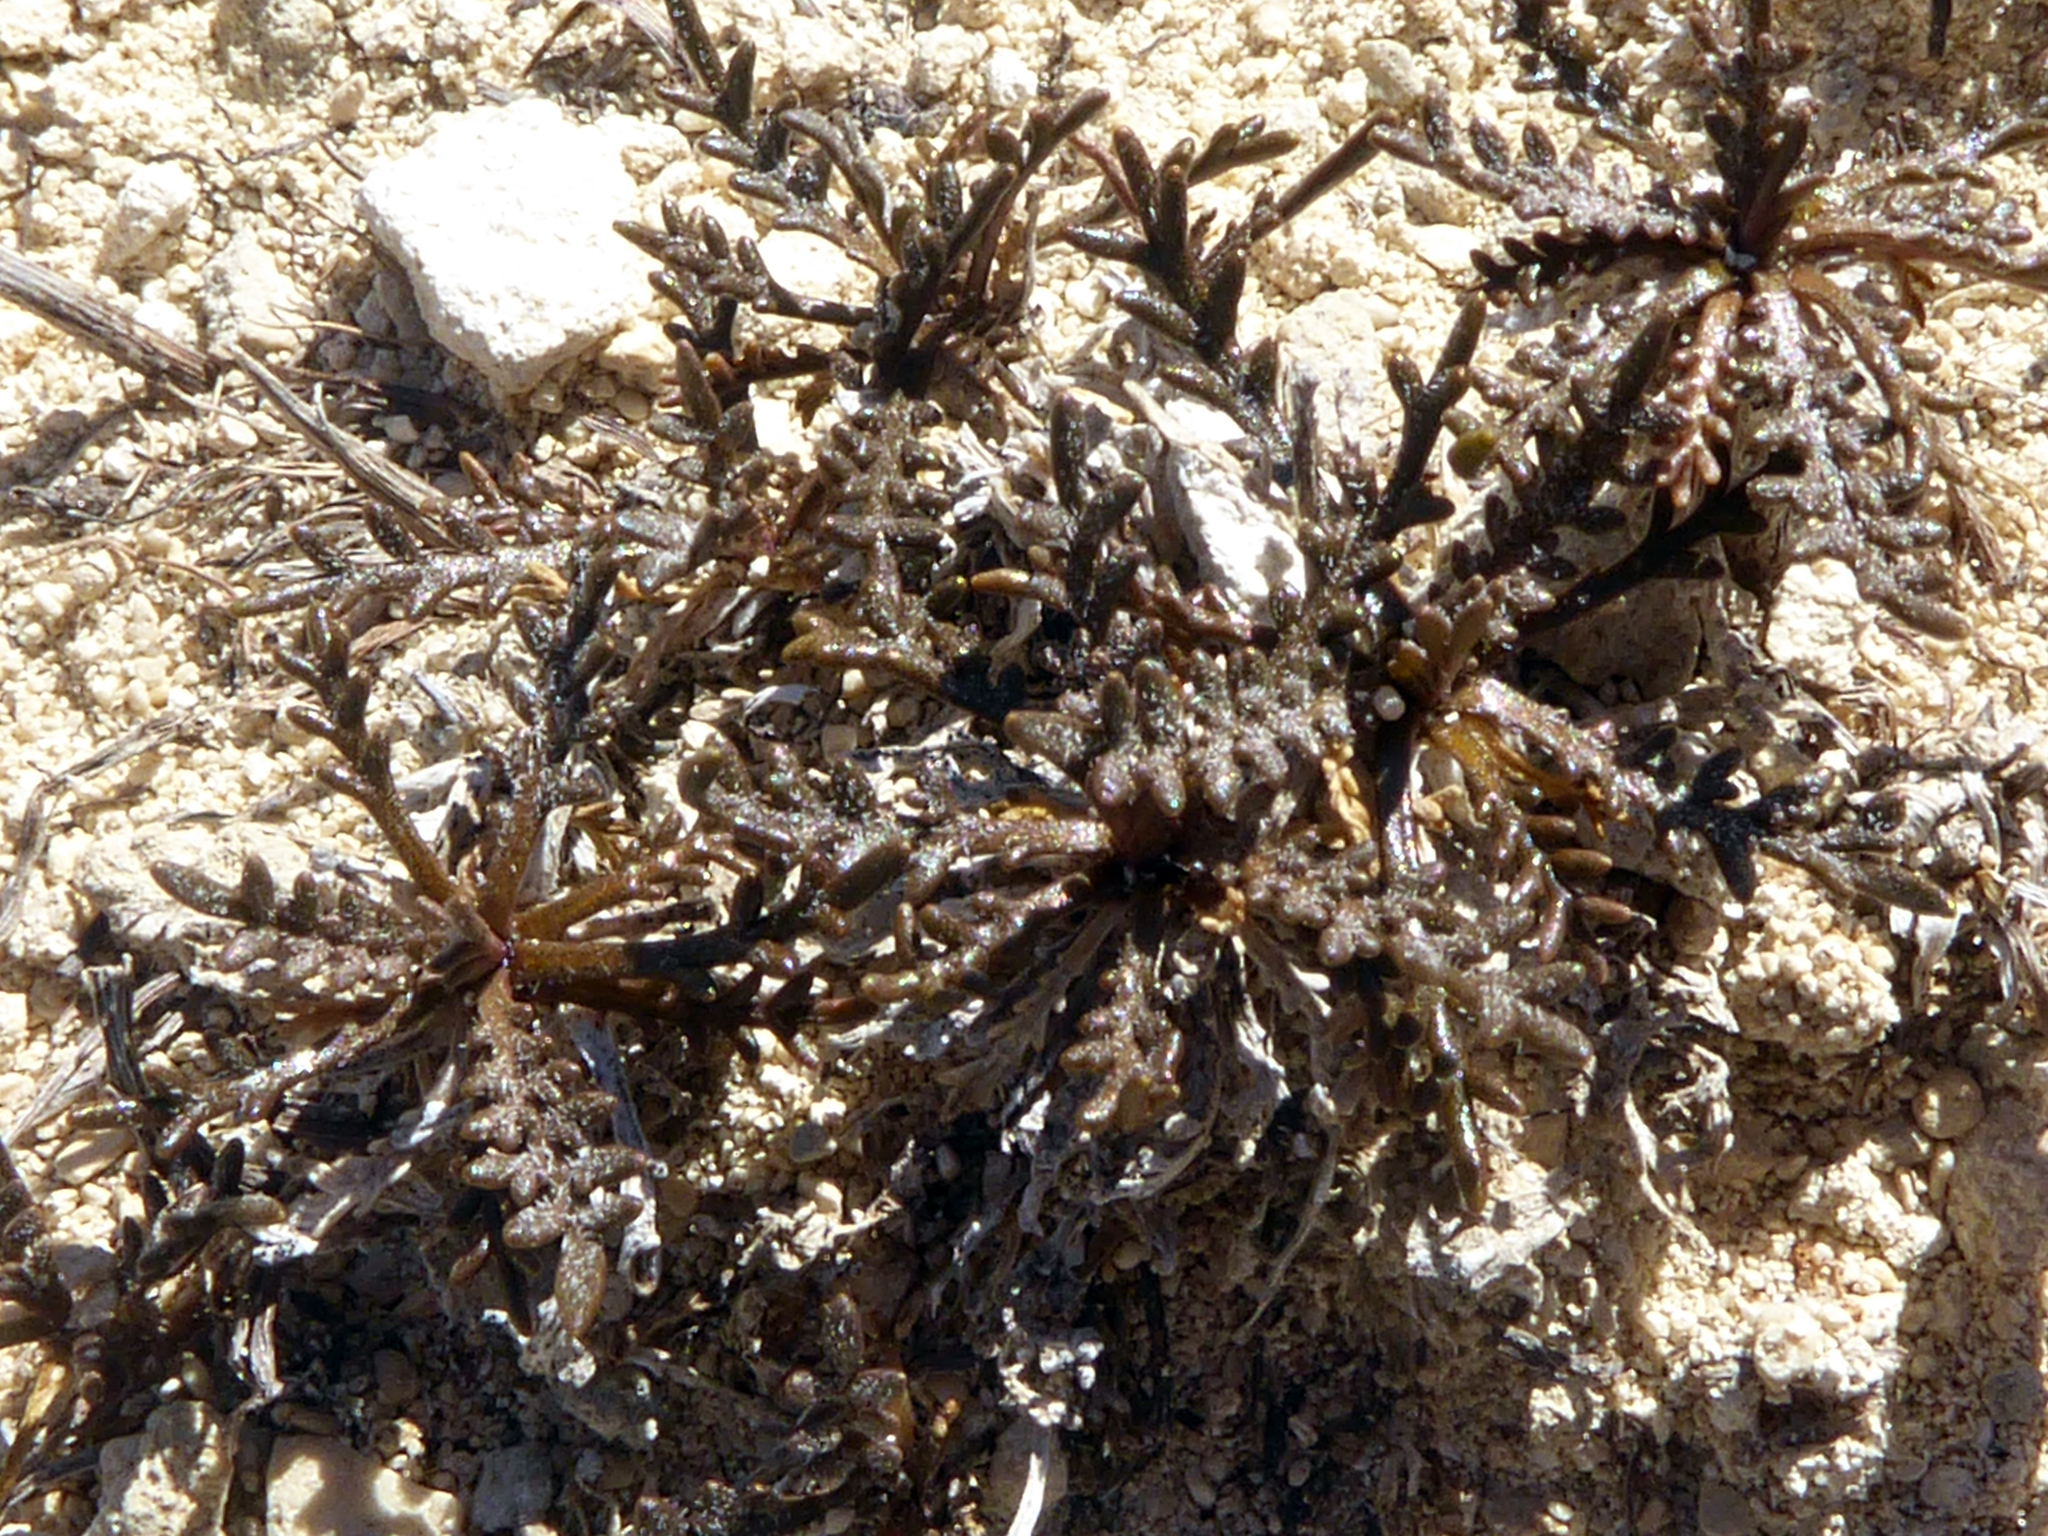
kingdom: Plantae
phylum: Tracheophyta
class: Magnoliopsida
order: Brassicales
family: Brassicaceae
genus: Lepidium
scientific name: Lepidium sisymbrioides
